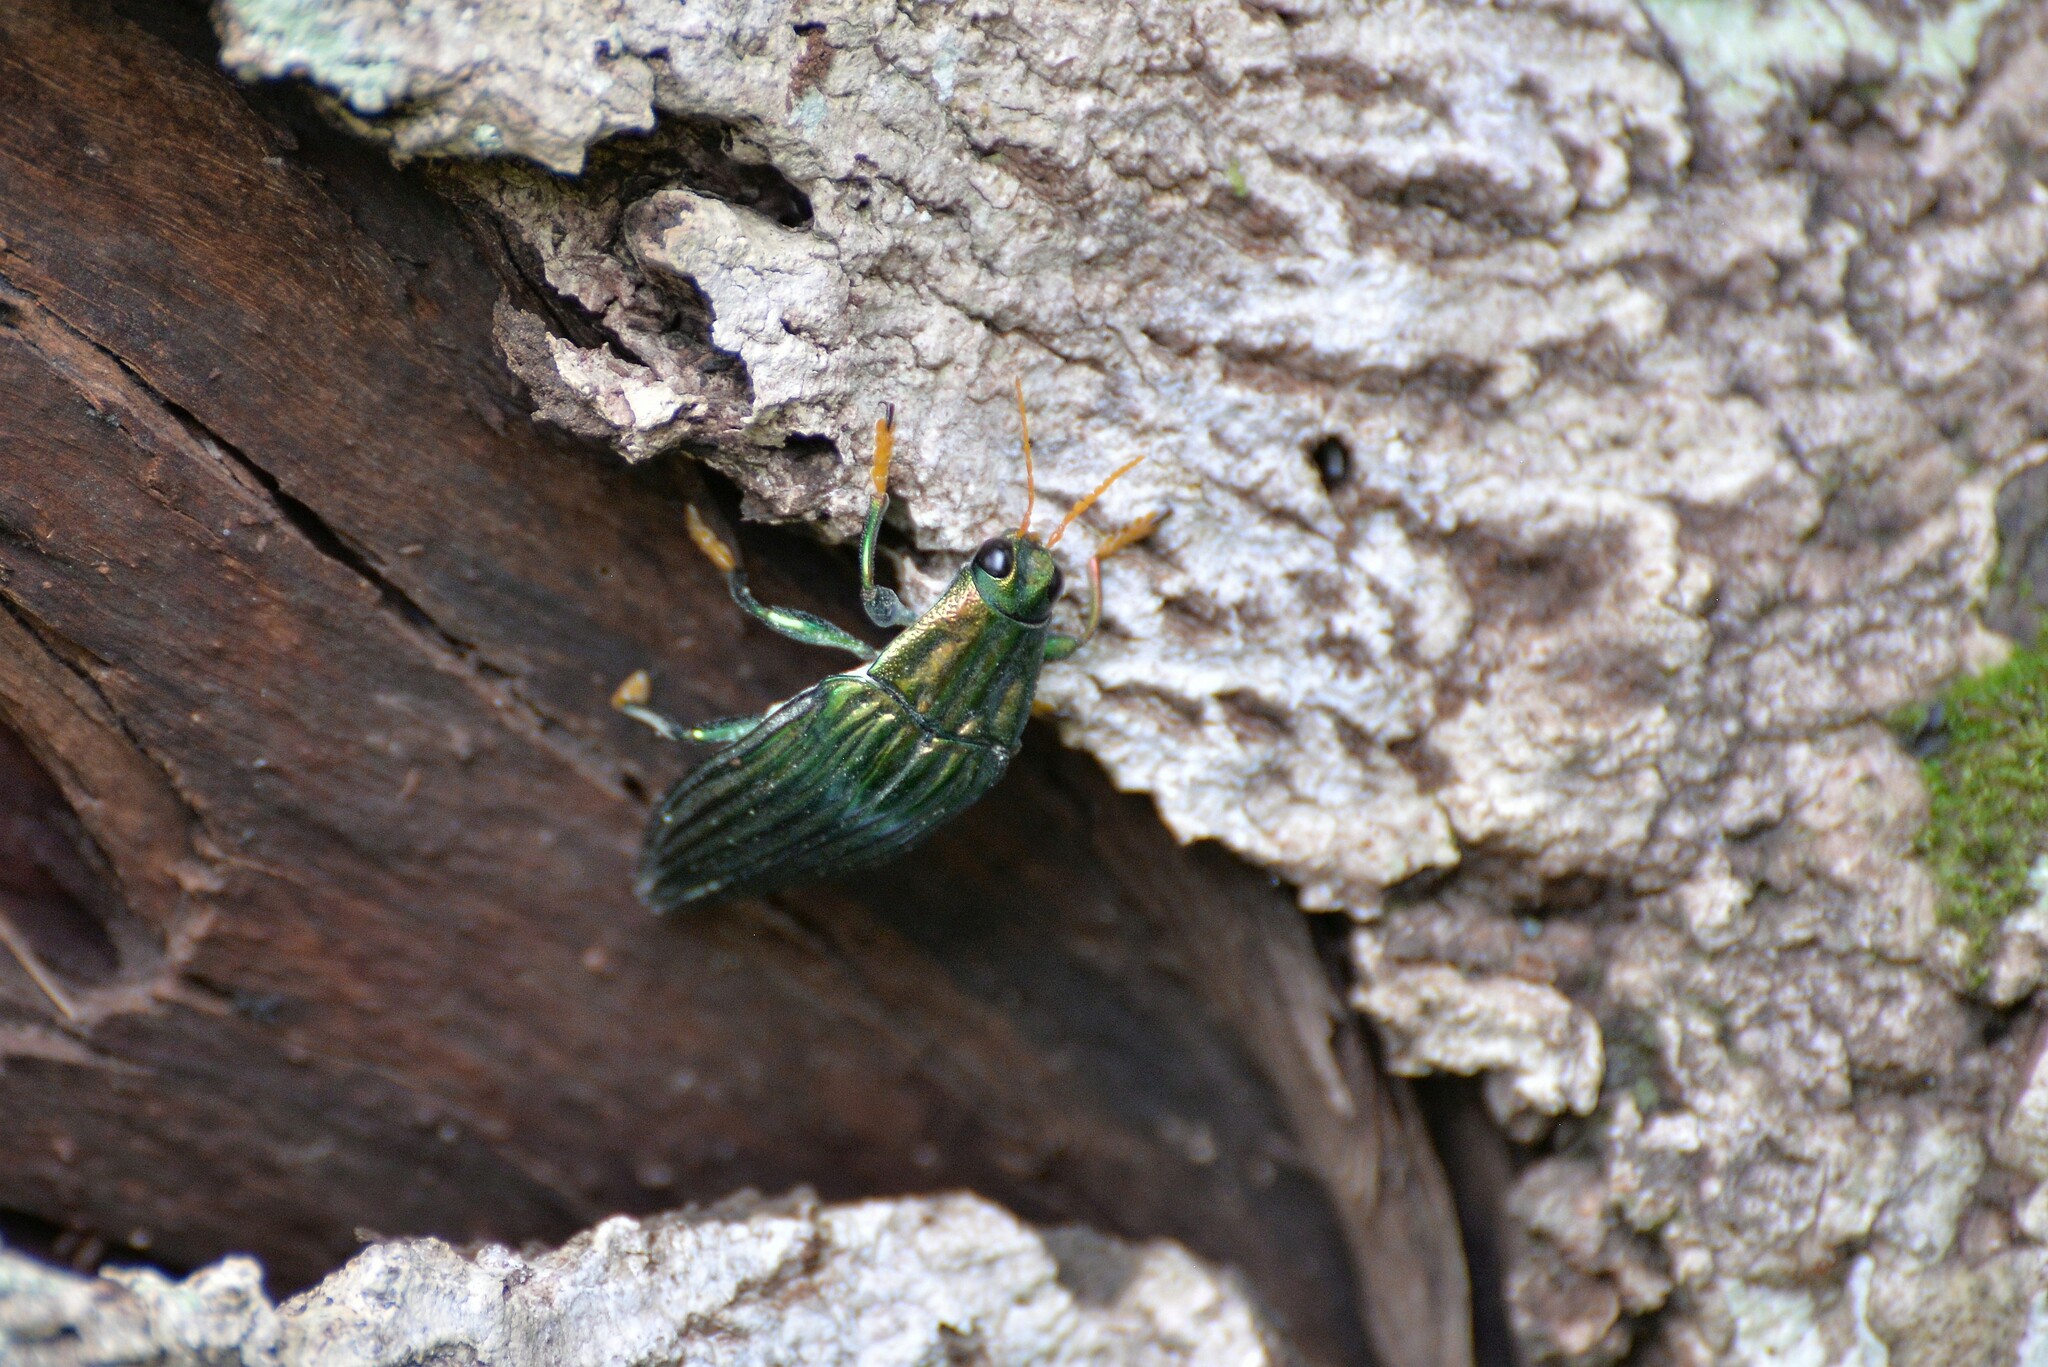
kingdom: Animalia
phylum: Arthropoda
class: Insecta
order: Coleoptera
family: Buprestidae
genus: Paracupta
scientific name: Paracupta hebridana
